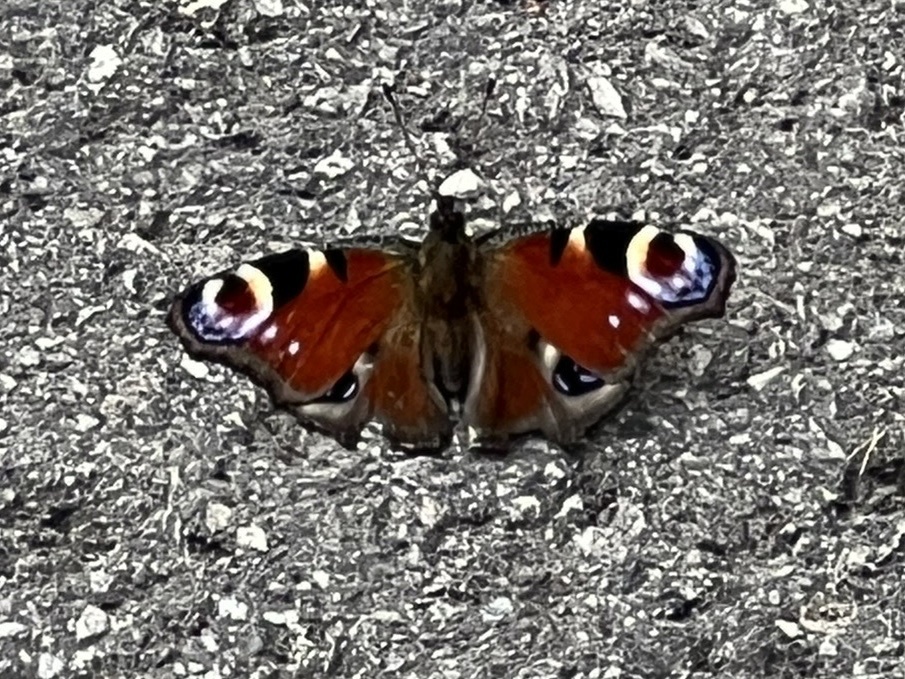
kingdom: Animalia
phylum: Arthropoda
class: Insecta
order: Lepidoptera
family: Nymphalidae
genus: Aglais
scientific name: Aglais io
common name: Peacock
